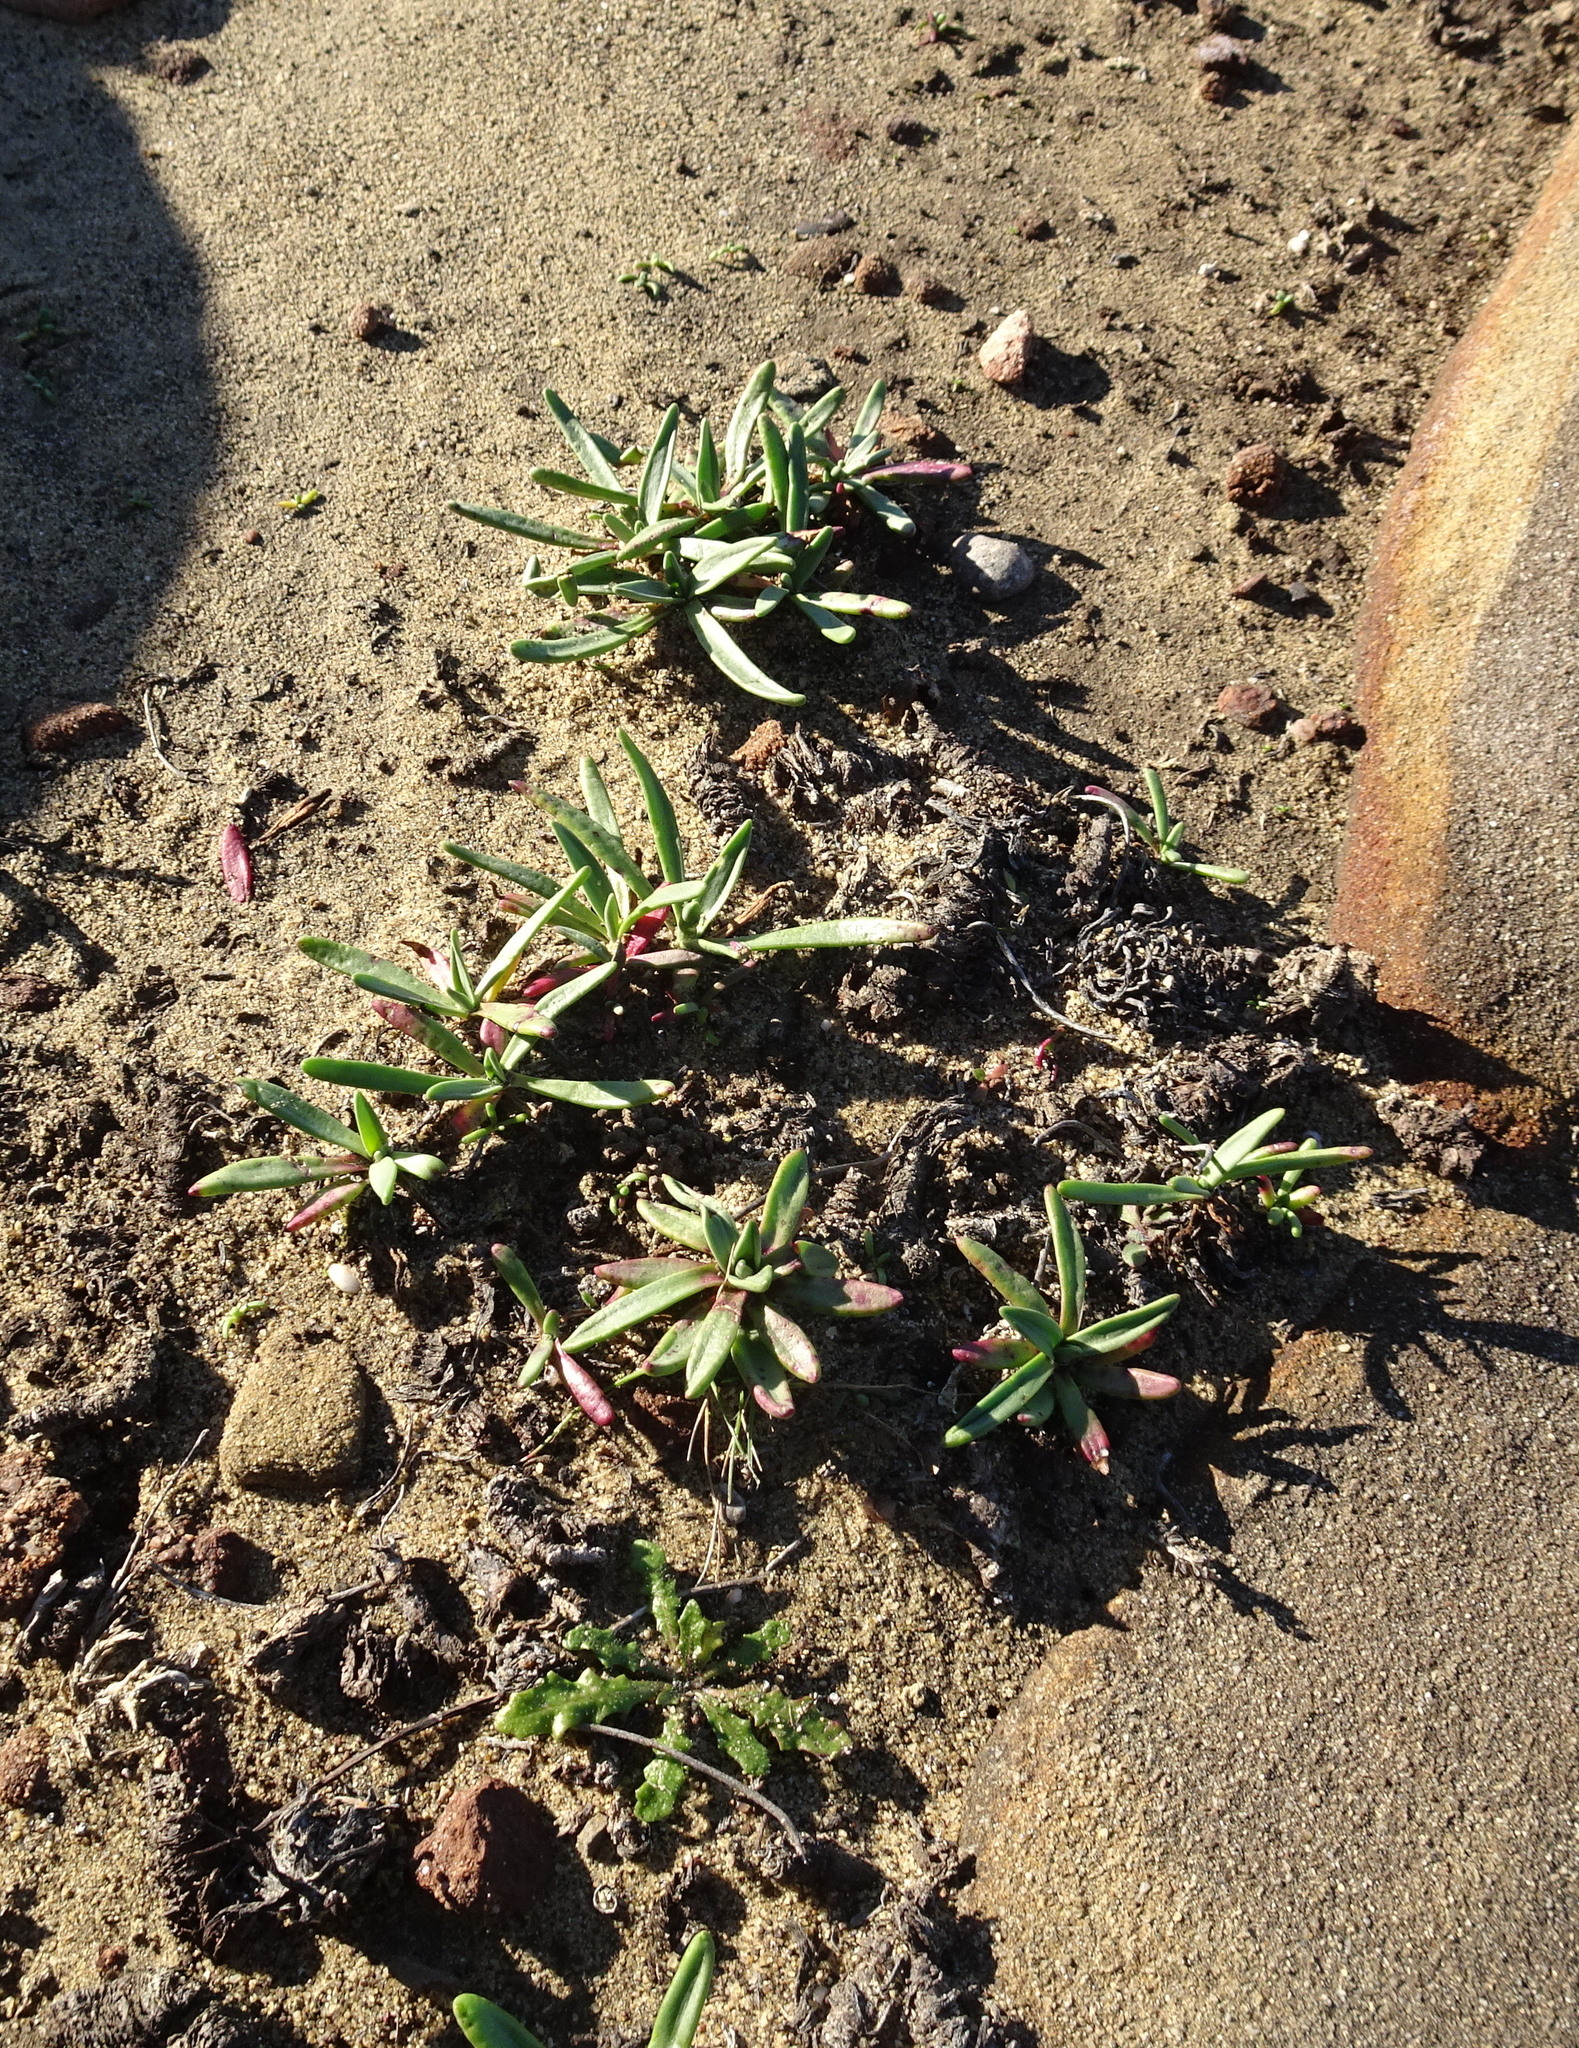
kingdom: Plantae
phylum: Tracheophyta
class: Magnoliopsida
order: Lamiales
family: Plantaginaceae
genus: Plantago
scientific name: Plantago maritima
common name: Sea plantain
